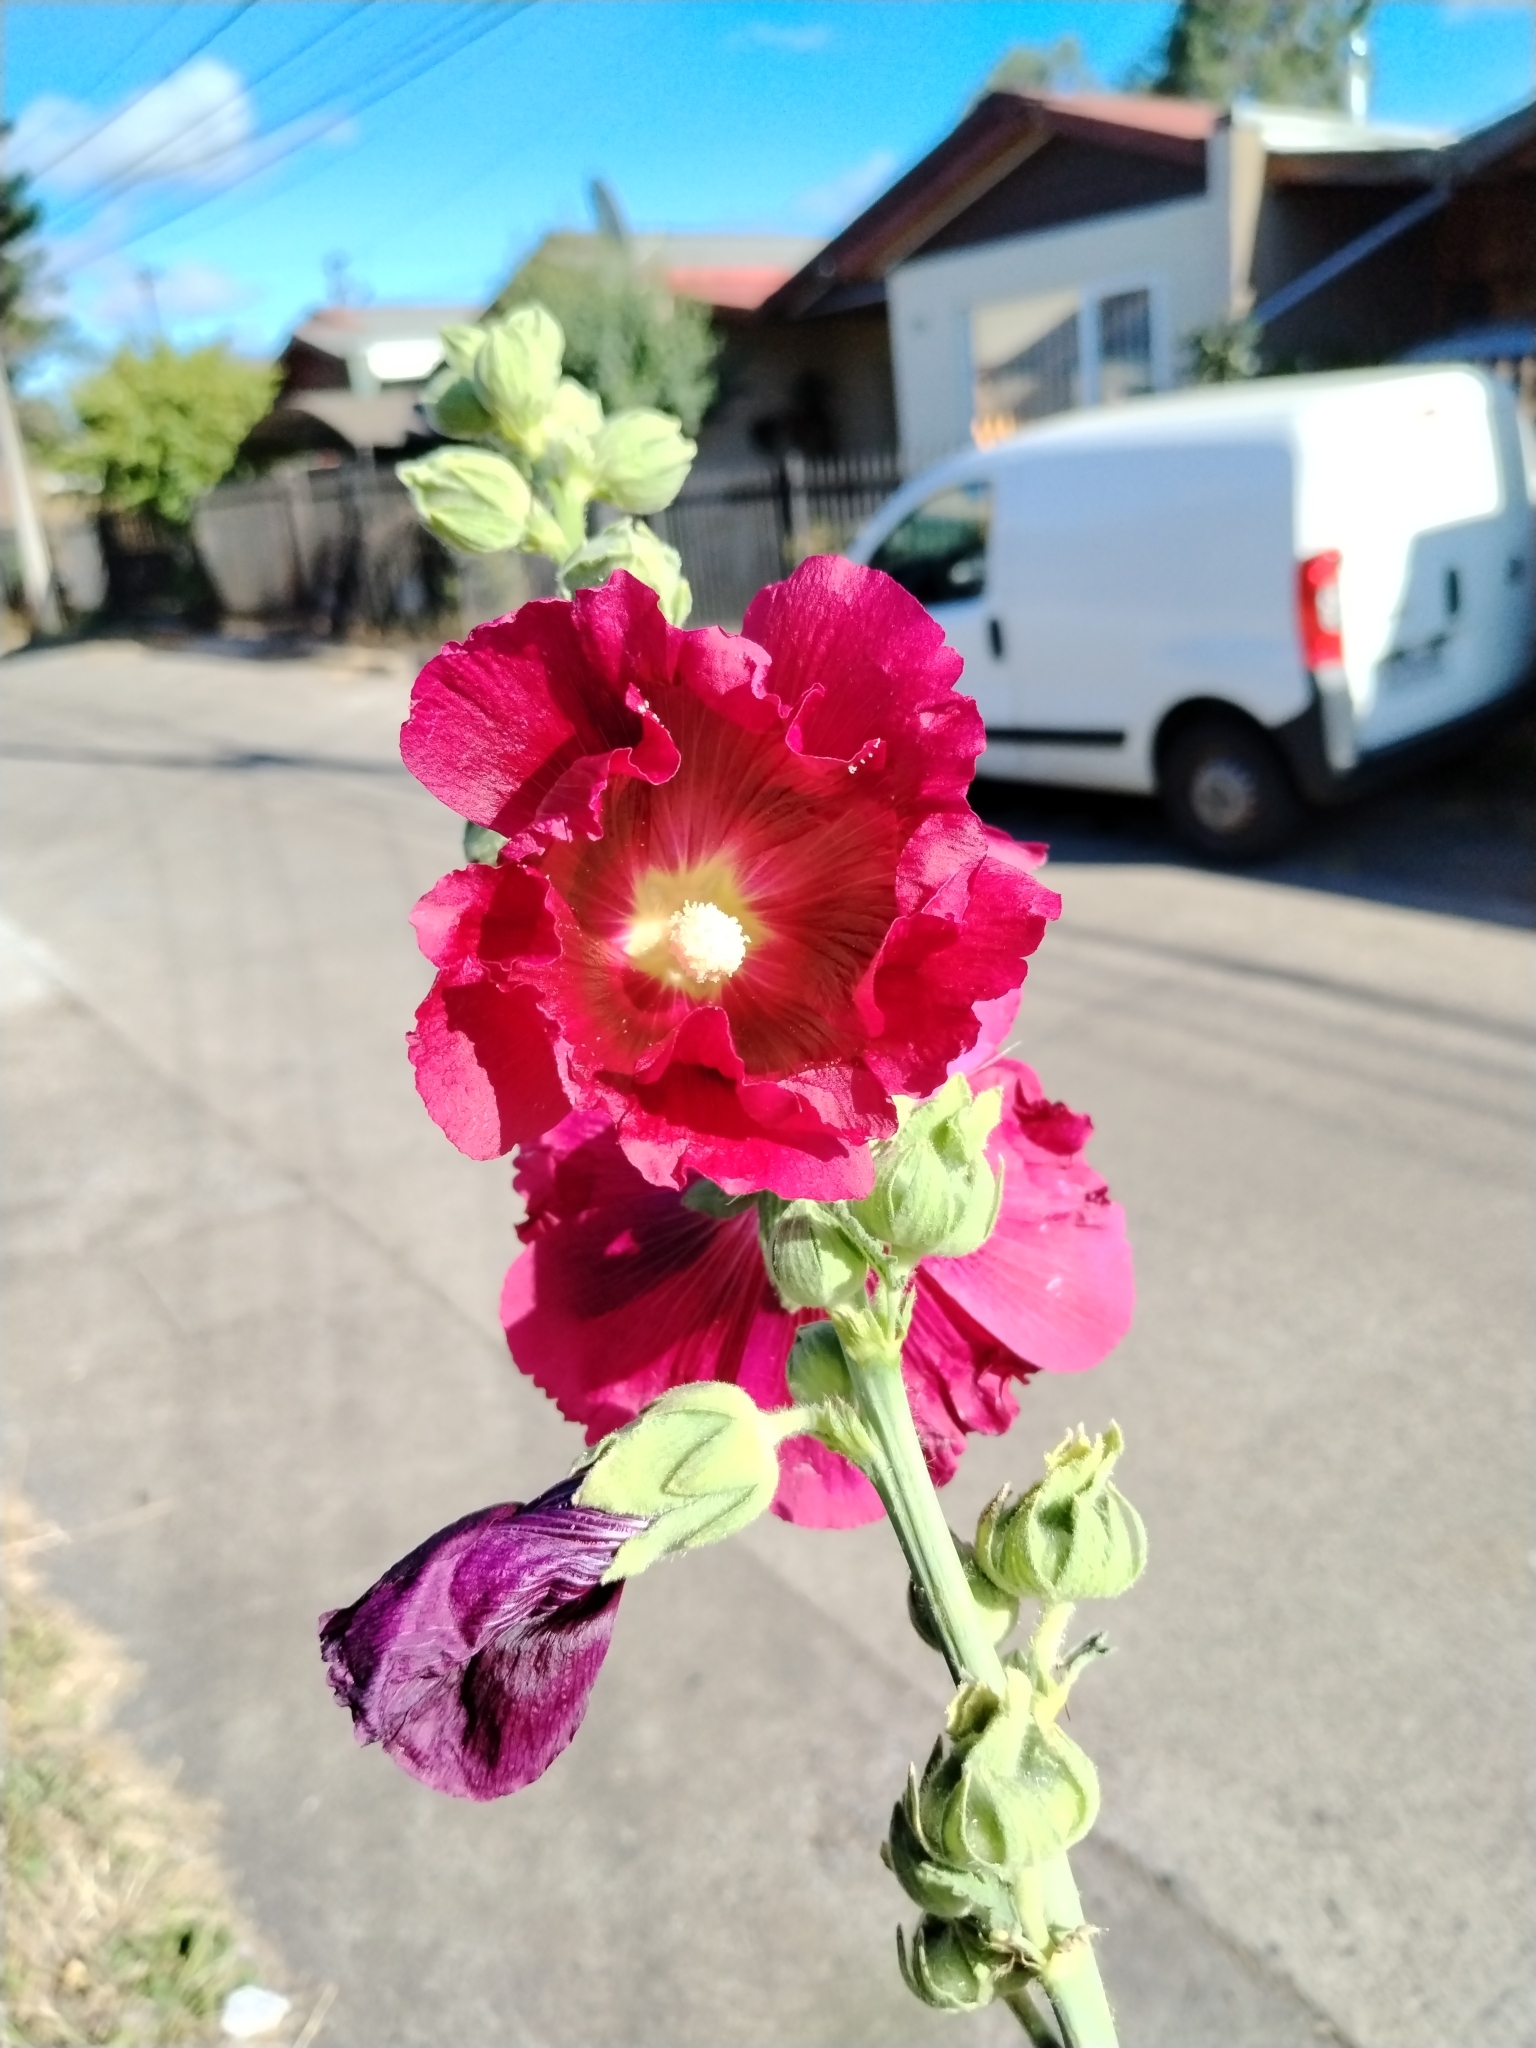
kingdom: Plantae
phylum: Tracheophyta
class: Magnoliopsida
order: Malvales
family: Malvaceae
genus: Alcea
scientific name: Alcea rosea
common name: Hollyhock
